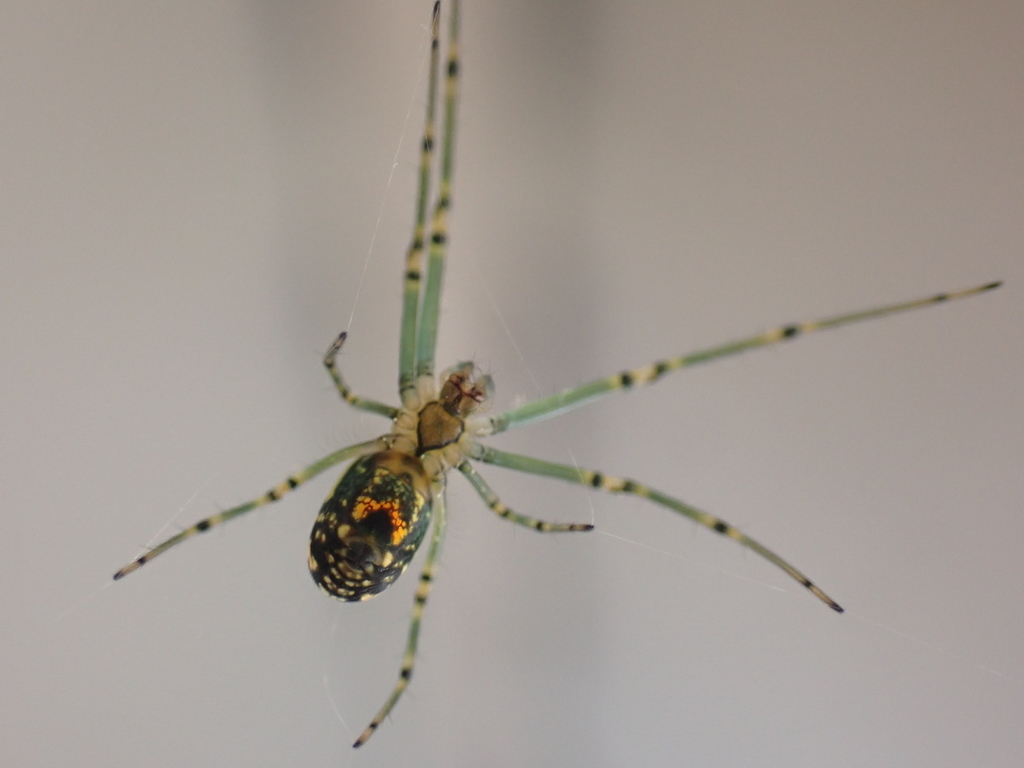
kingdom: Animalia
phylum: Arthropoda
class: Arachnida
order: Araneae
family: Tetragnathidae
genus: Leucauge
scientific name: Leucauge venusta
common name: Longjawed orb weavers
